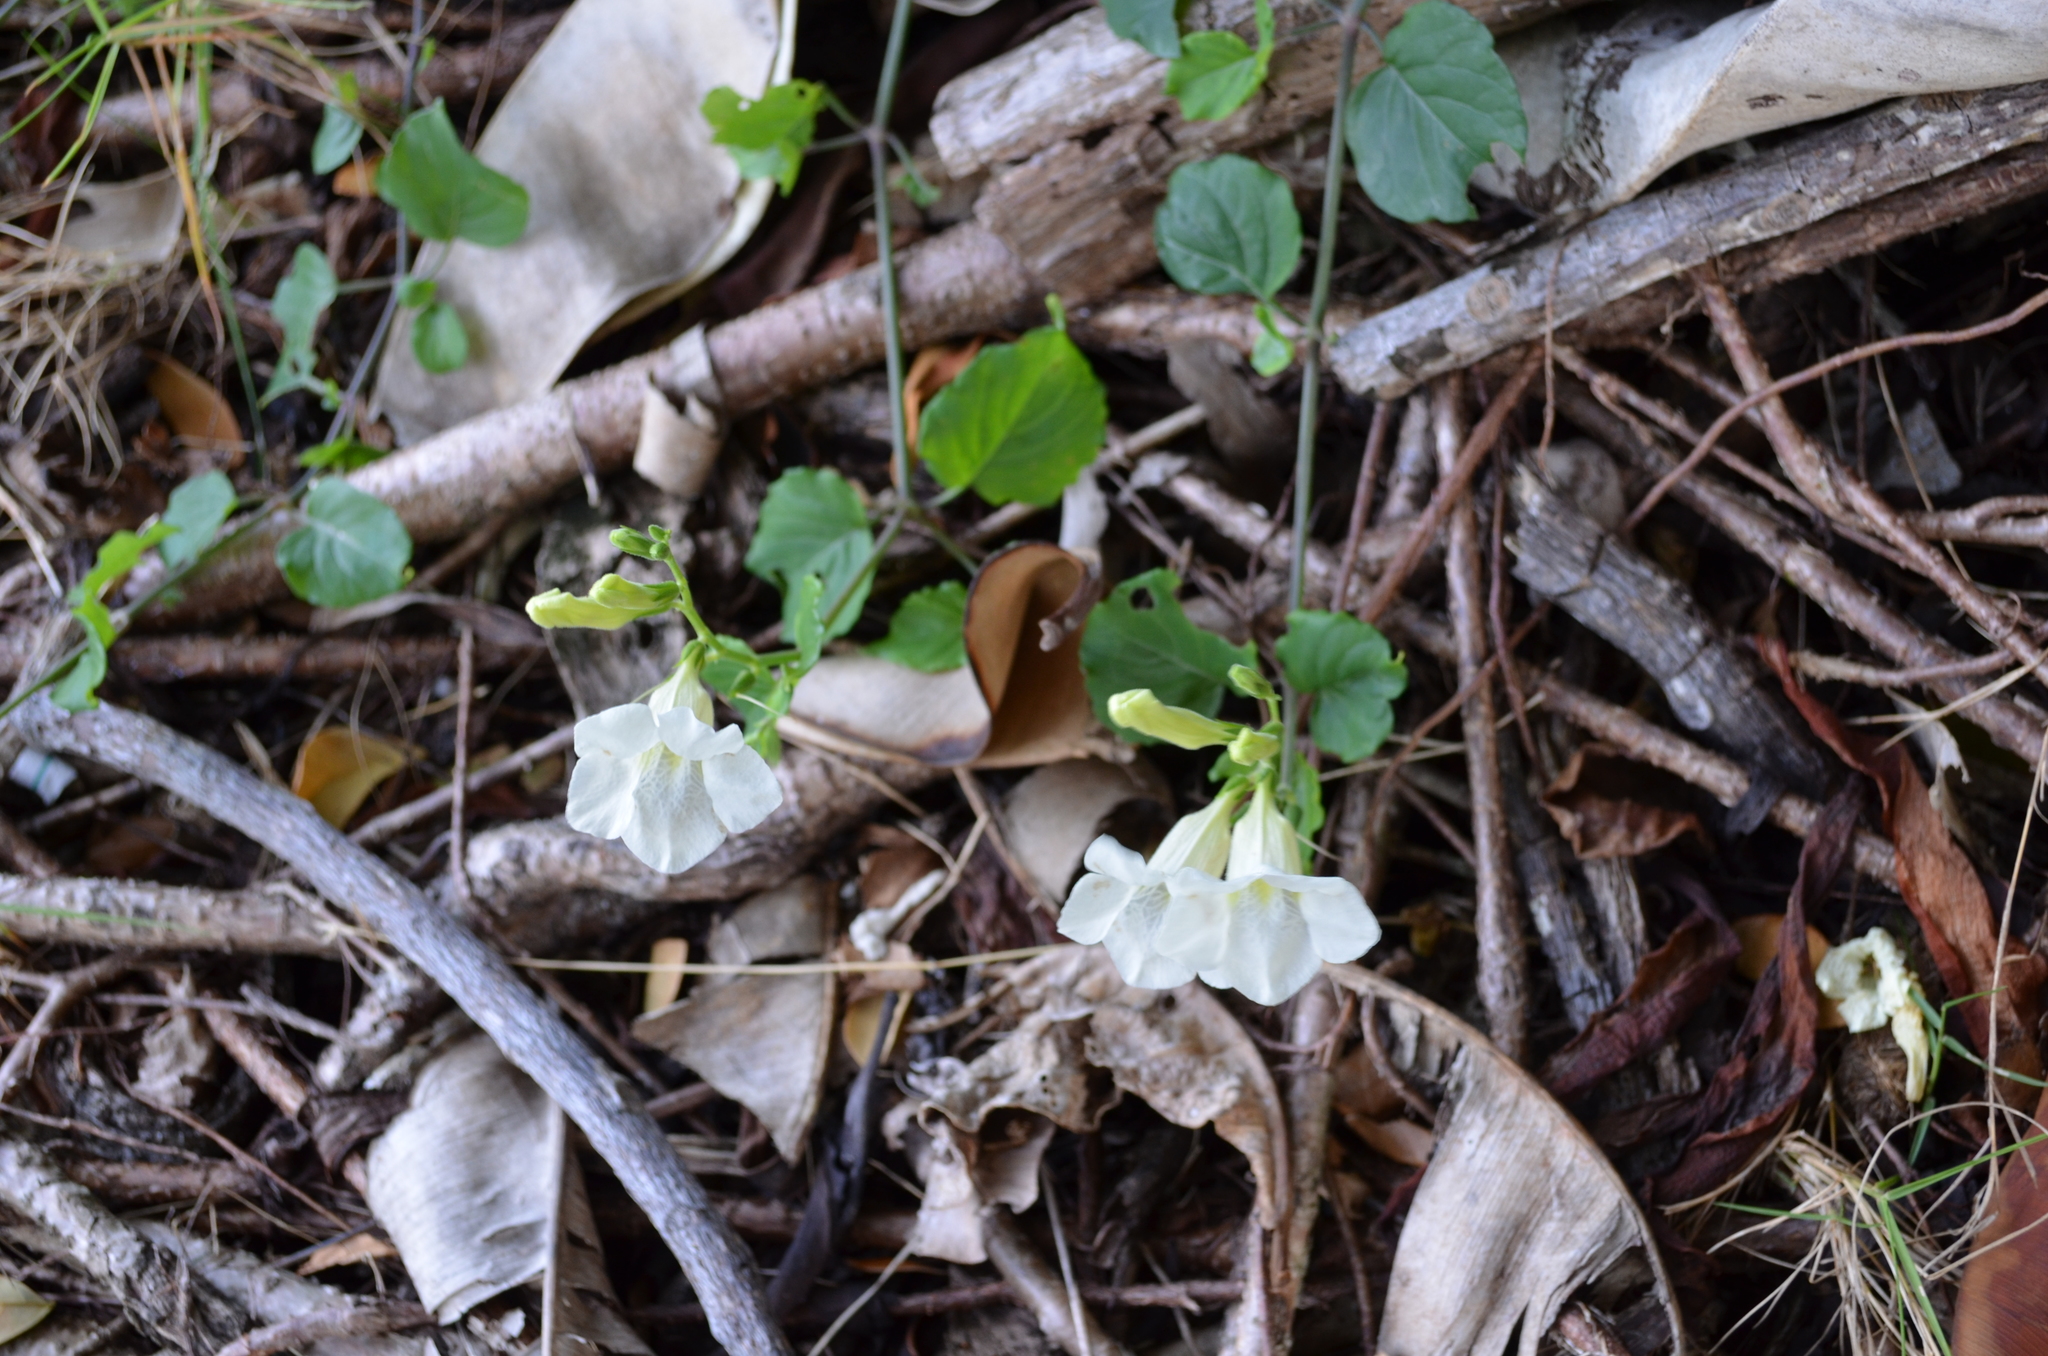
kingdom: Plantae
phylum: Tracheophyta
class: Magnoliopsida
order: Lamiales
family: Acanthaceae
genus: Asystasia
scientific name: Asystasia gangetica
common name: Chinese violet
